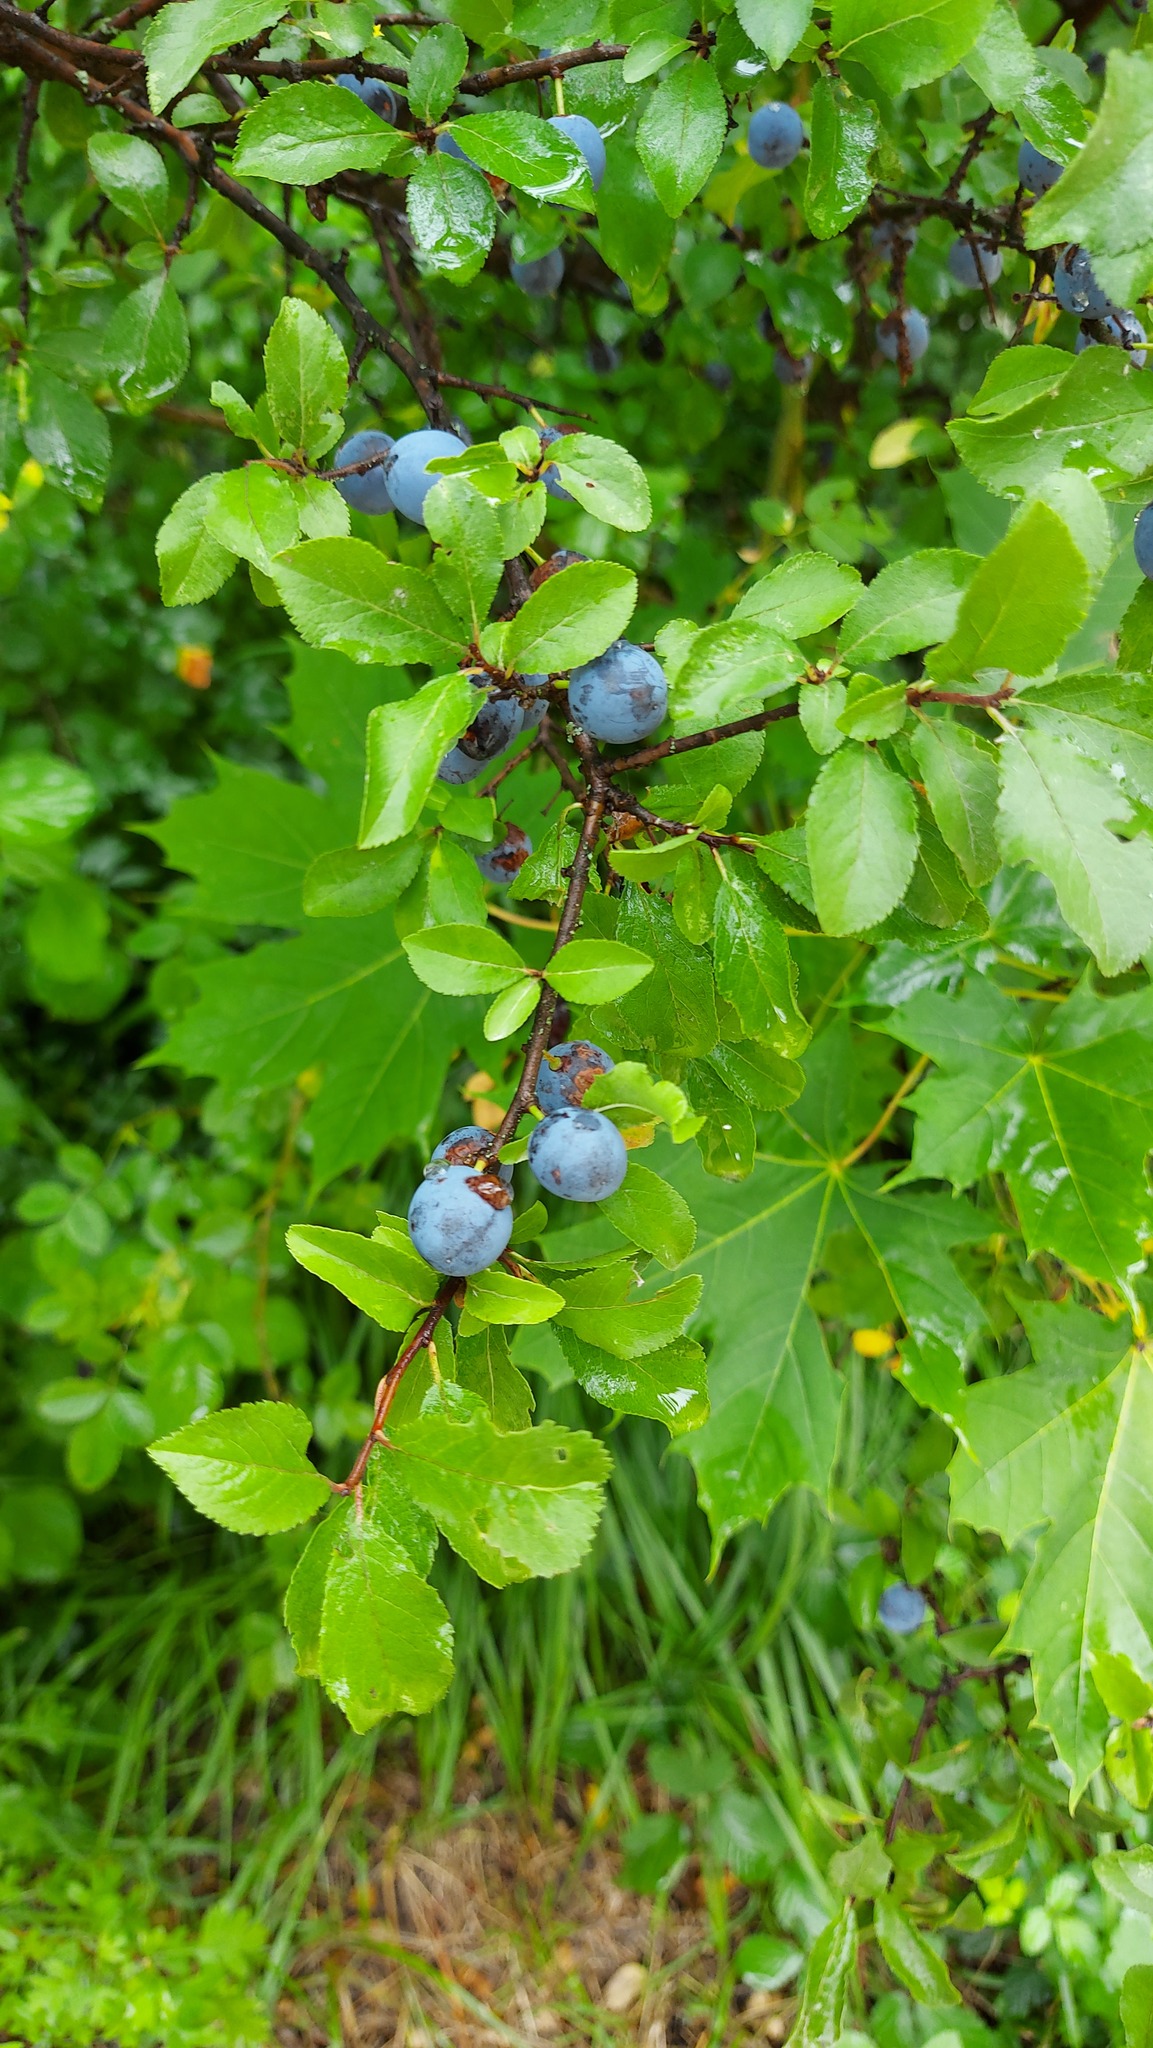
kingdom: Plantae
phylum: Tracheophyta
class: Magnoliopsida
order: Rosales
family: Rosaceae
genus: Prunus
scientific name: Prunus spinosa
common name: Blackthorn
